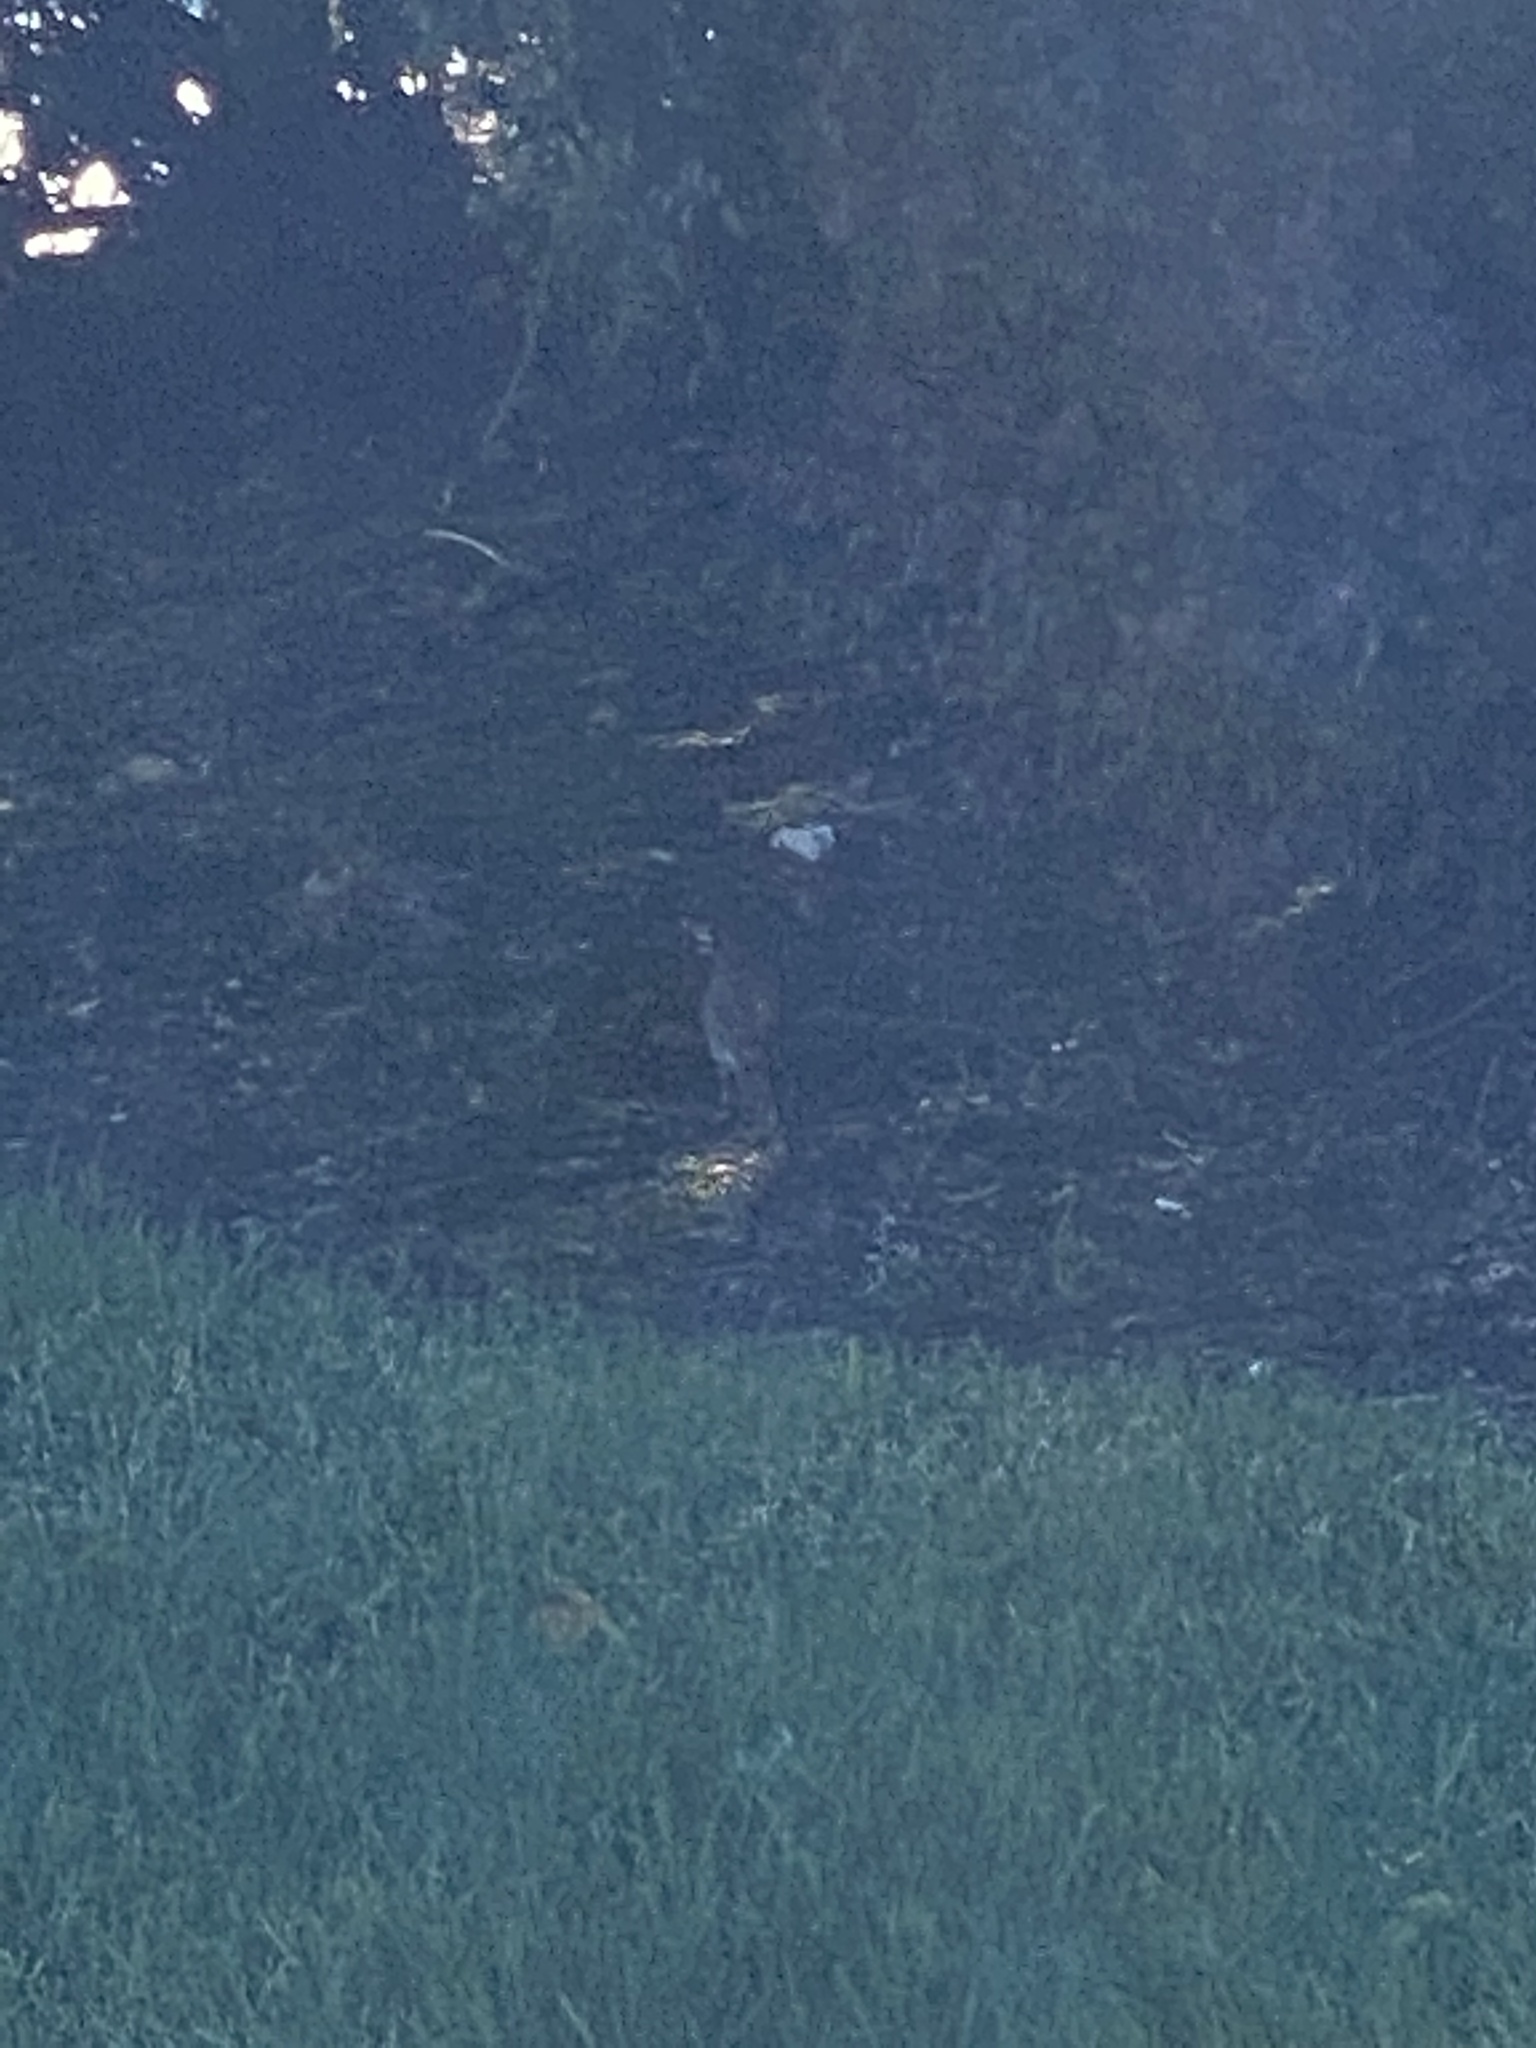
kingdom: Animalia
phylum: Chordata
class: Aves
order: Passeriformes
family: Passerellidae
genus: Junco
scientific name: Junco hyemalis
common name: Dark-eyed junco
